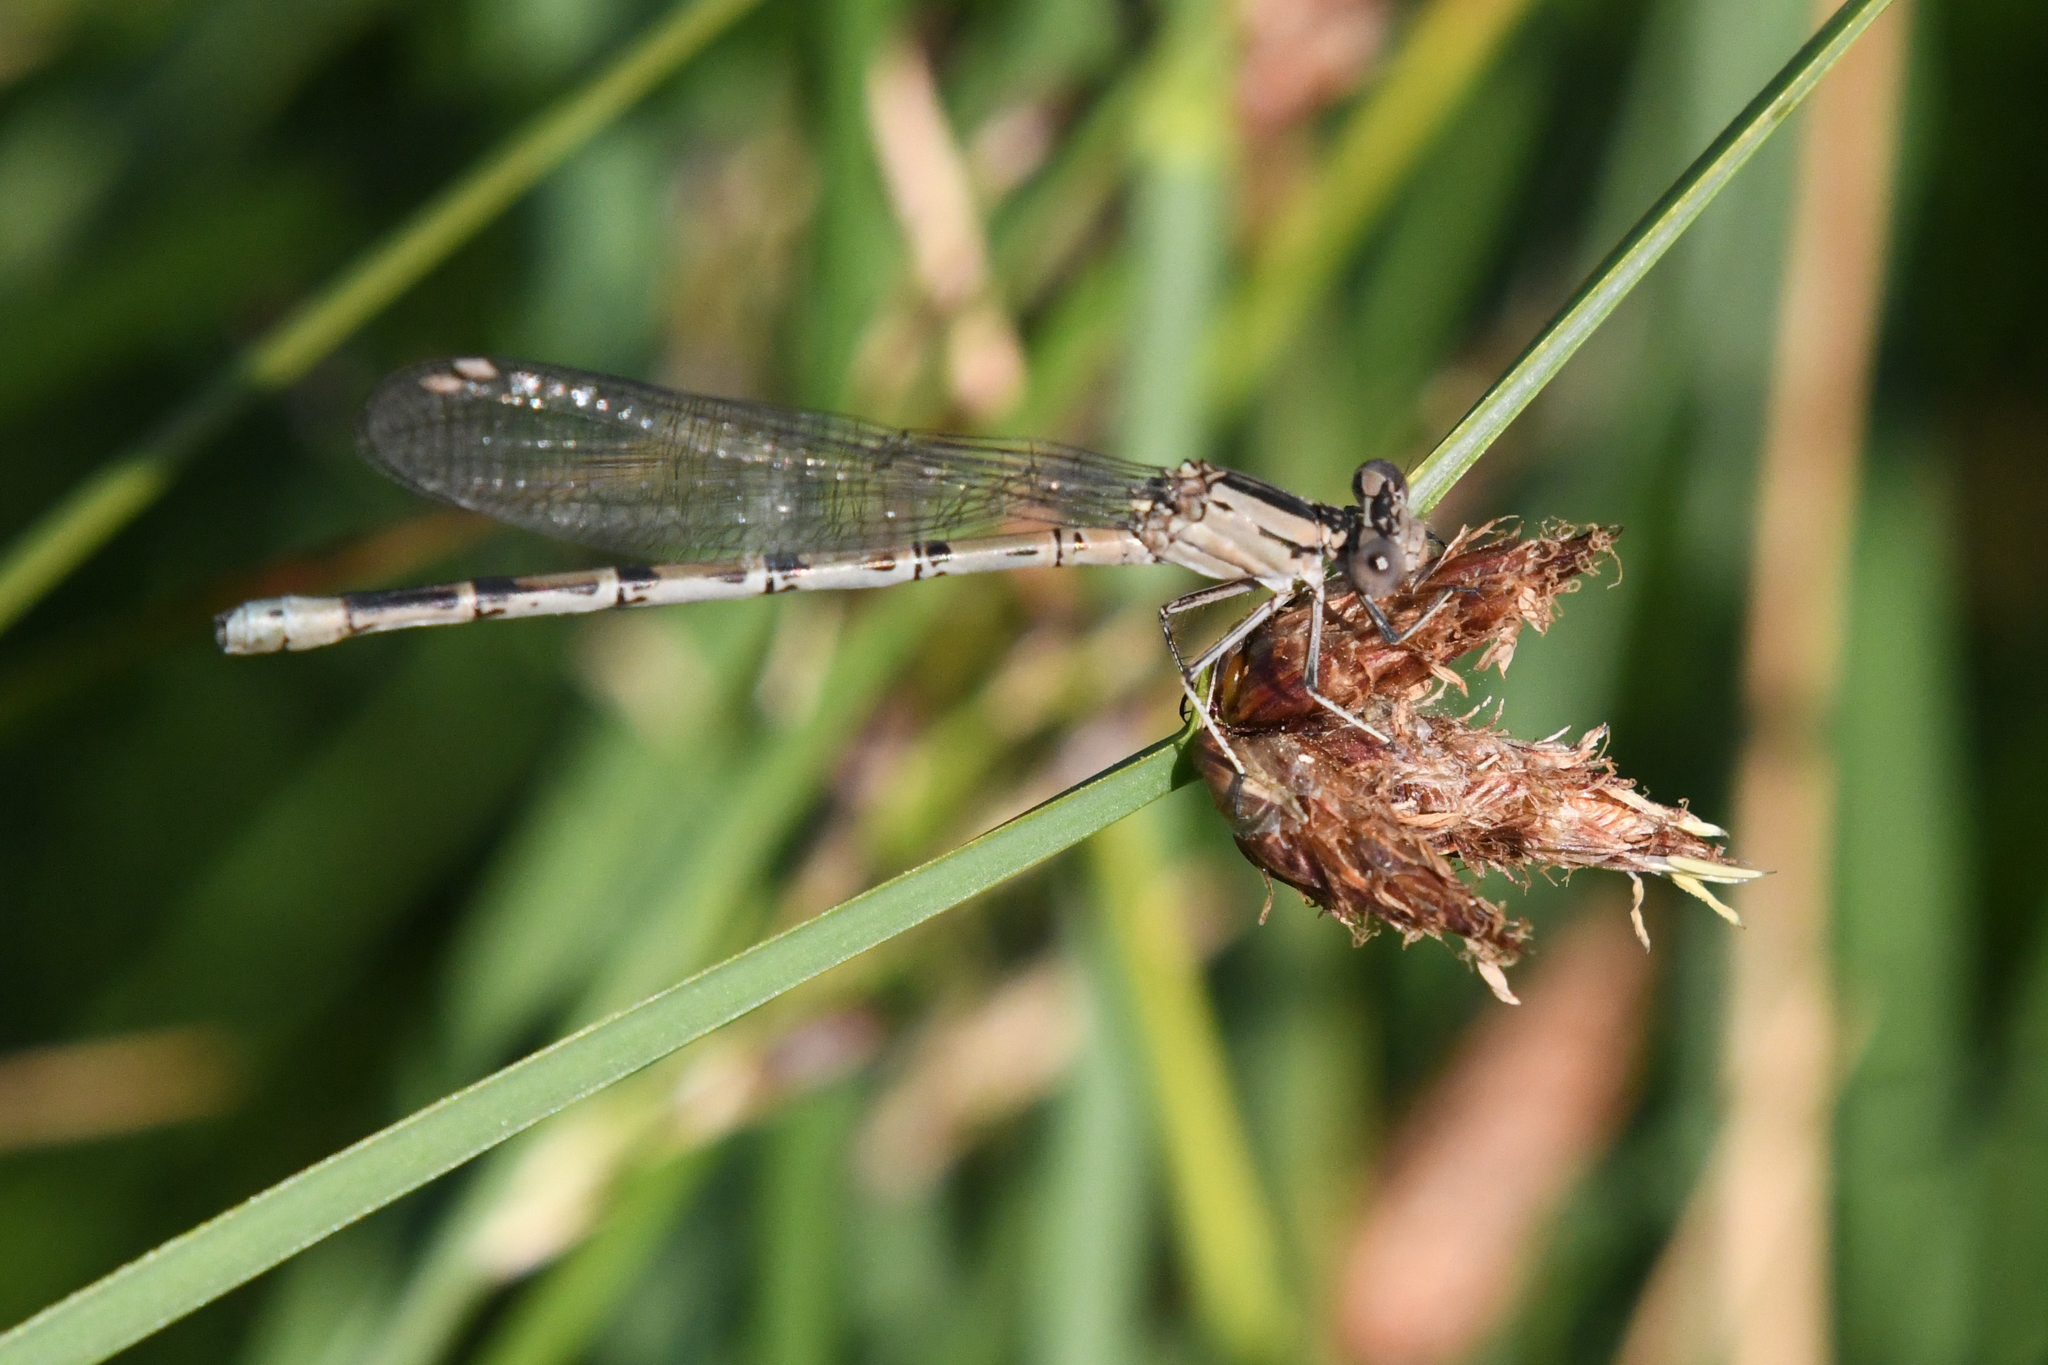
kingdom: Animalia
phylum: Arthropoda
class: Insecta
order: Odonata
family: Coenagrionidae
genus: Argia
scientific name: Argia vivida
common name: Vivid dancer
